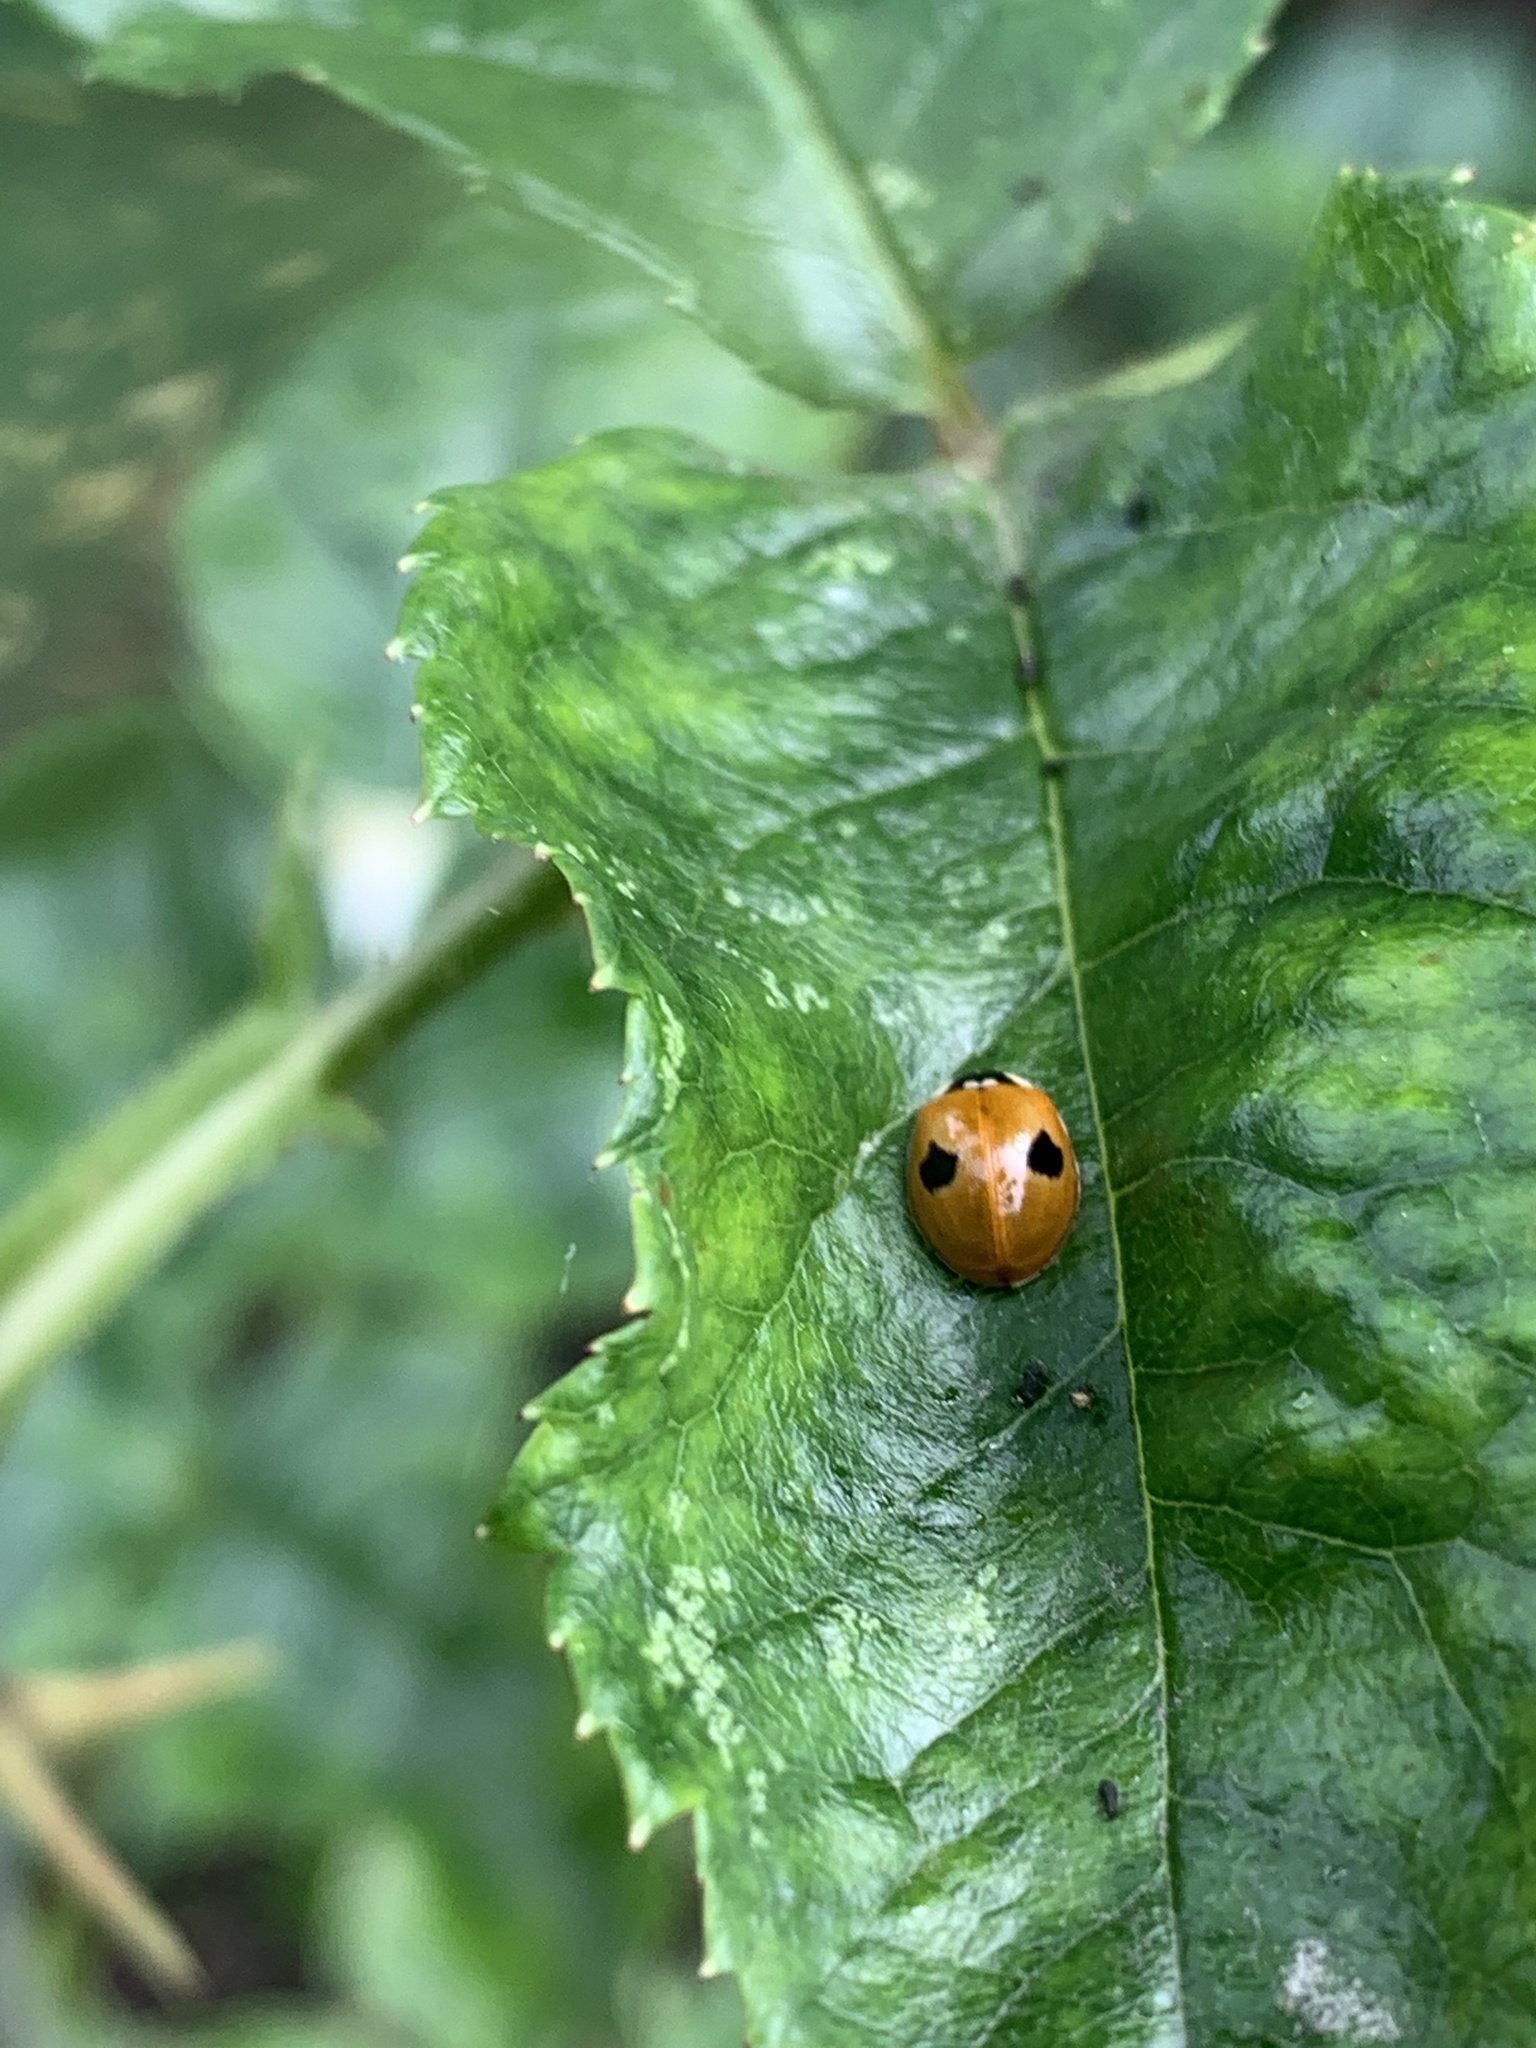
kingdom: Animalia
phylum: Arthropoda
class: Insecta
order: Coleoptera
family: Coccinellidae
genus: Adalia
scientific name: Adalia bipunctata
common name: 2-spot ladybird
